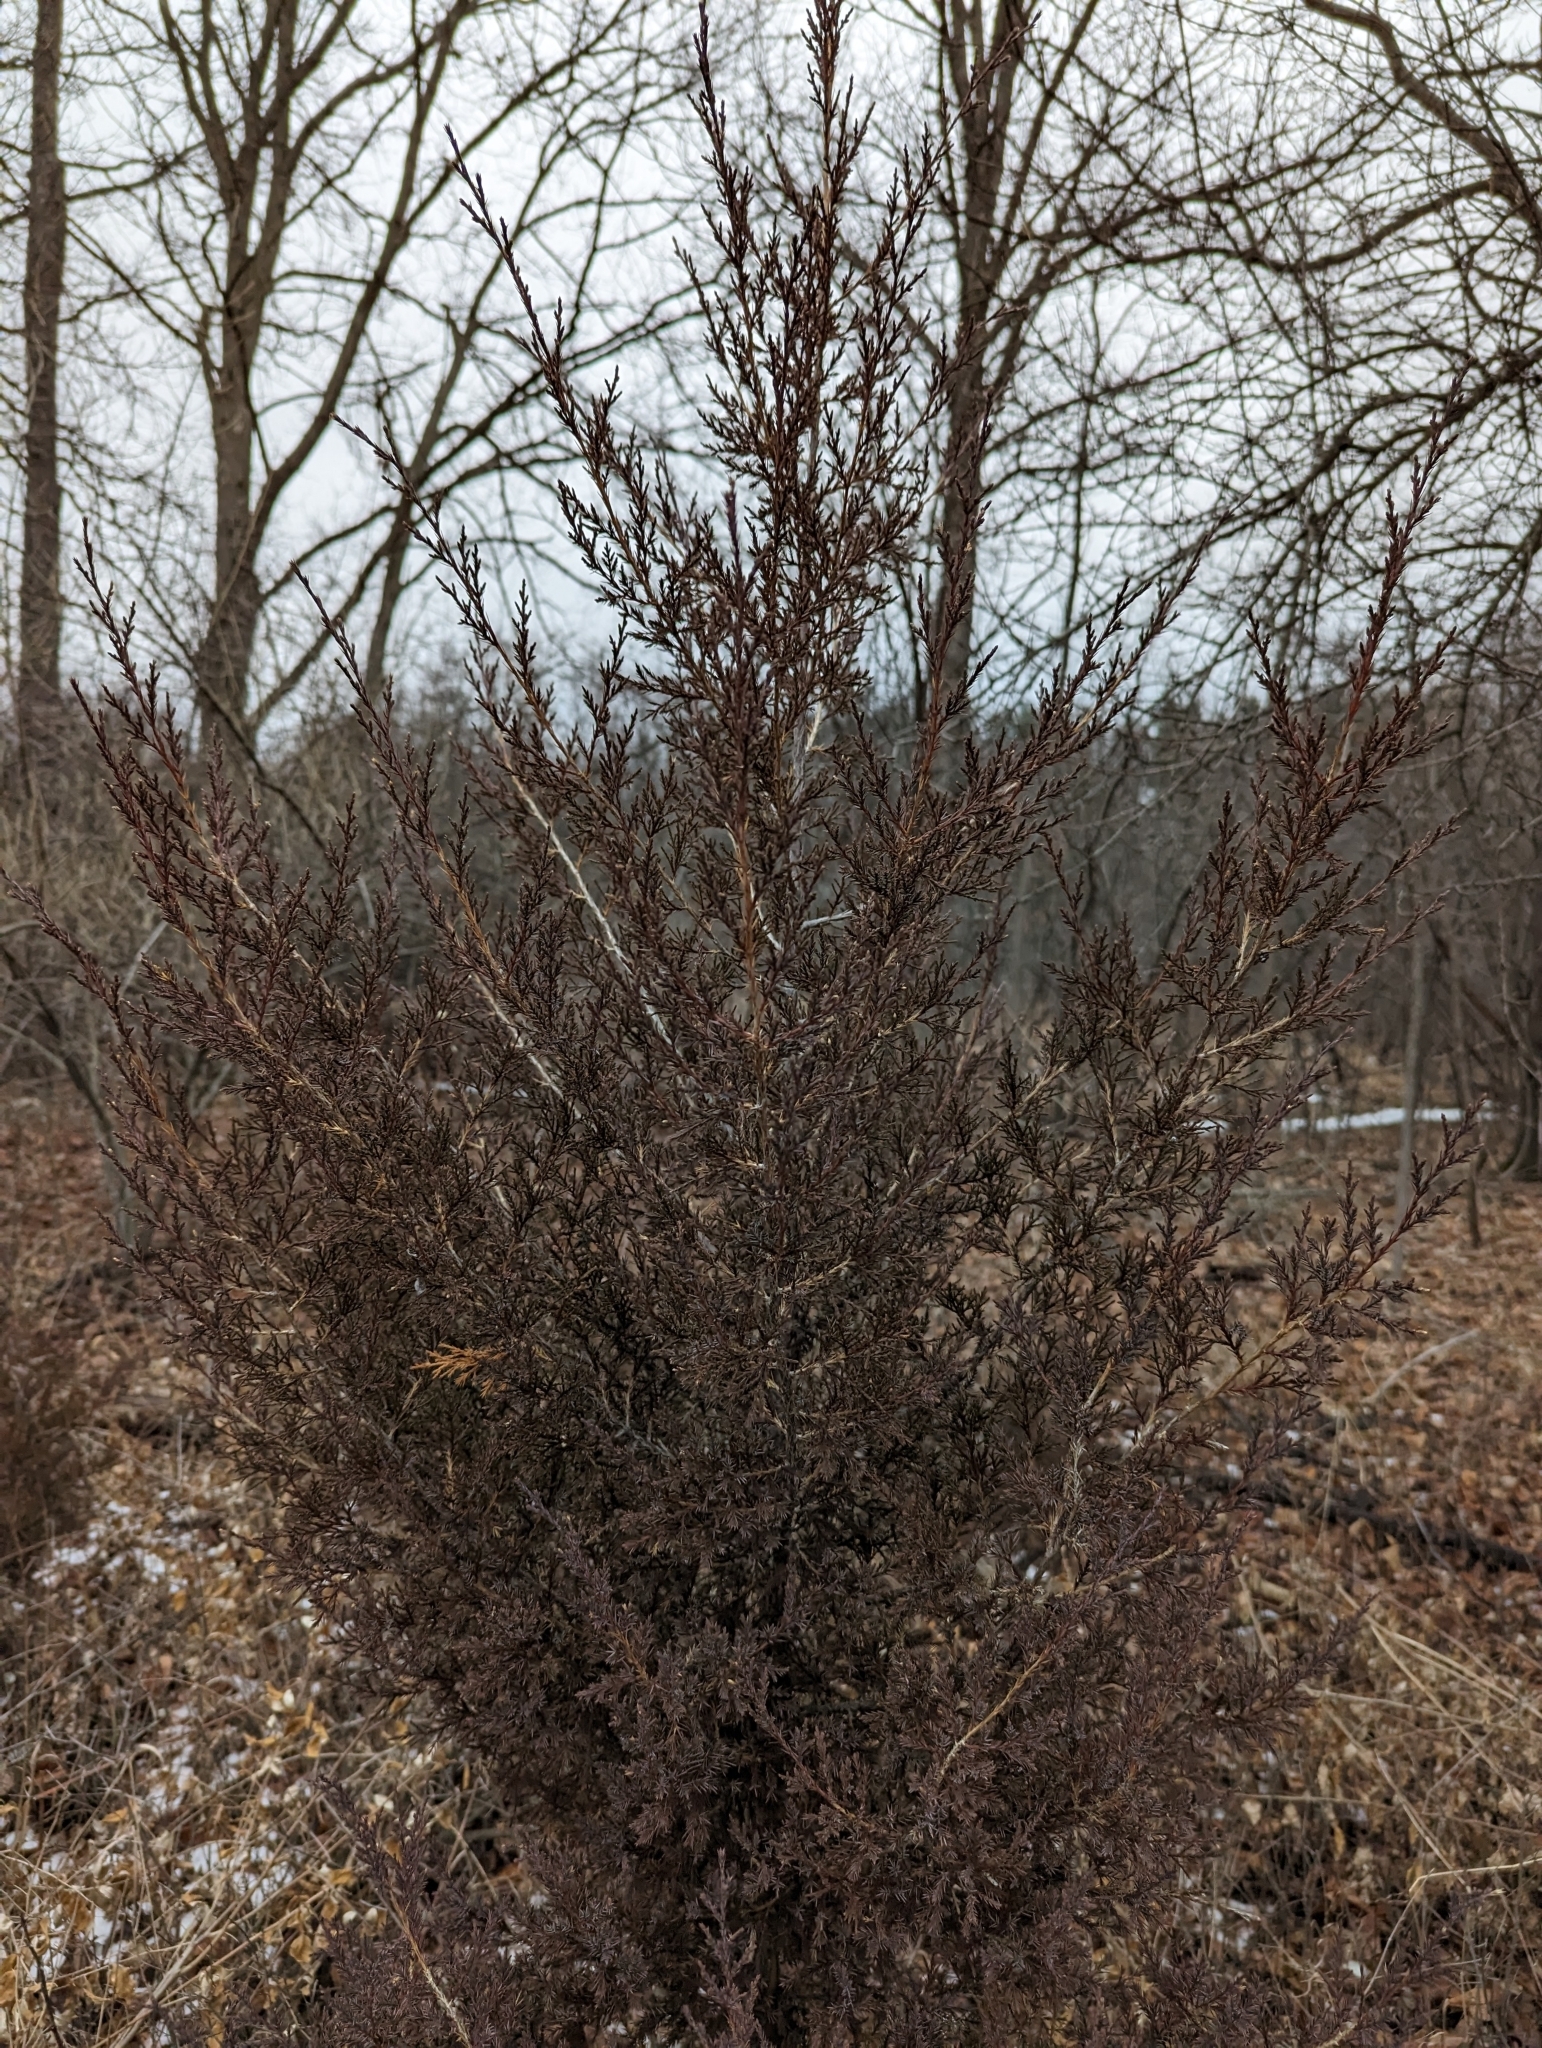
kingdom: Plantae
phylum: Tracheophyta
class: Pinopsida
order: Pinales
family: Cupressaceae
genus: Juniperus
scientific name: Juniperus virginiana
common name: Red juniper
